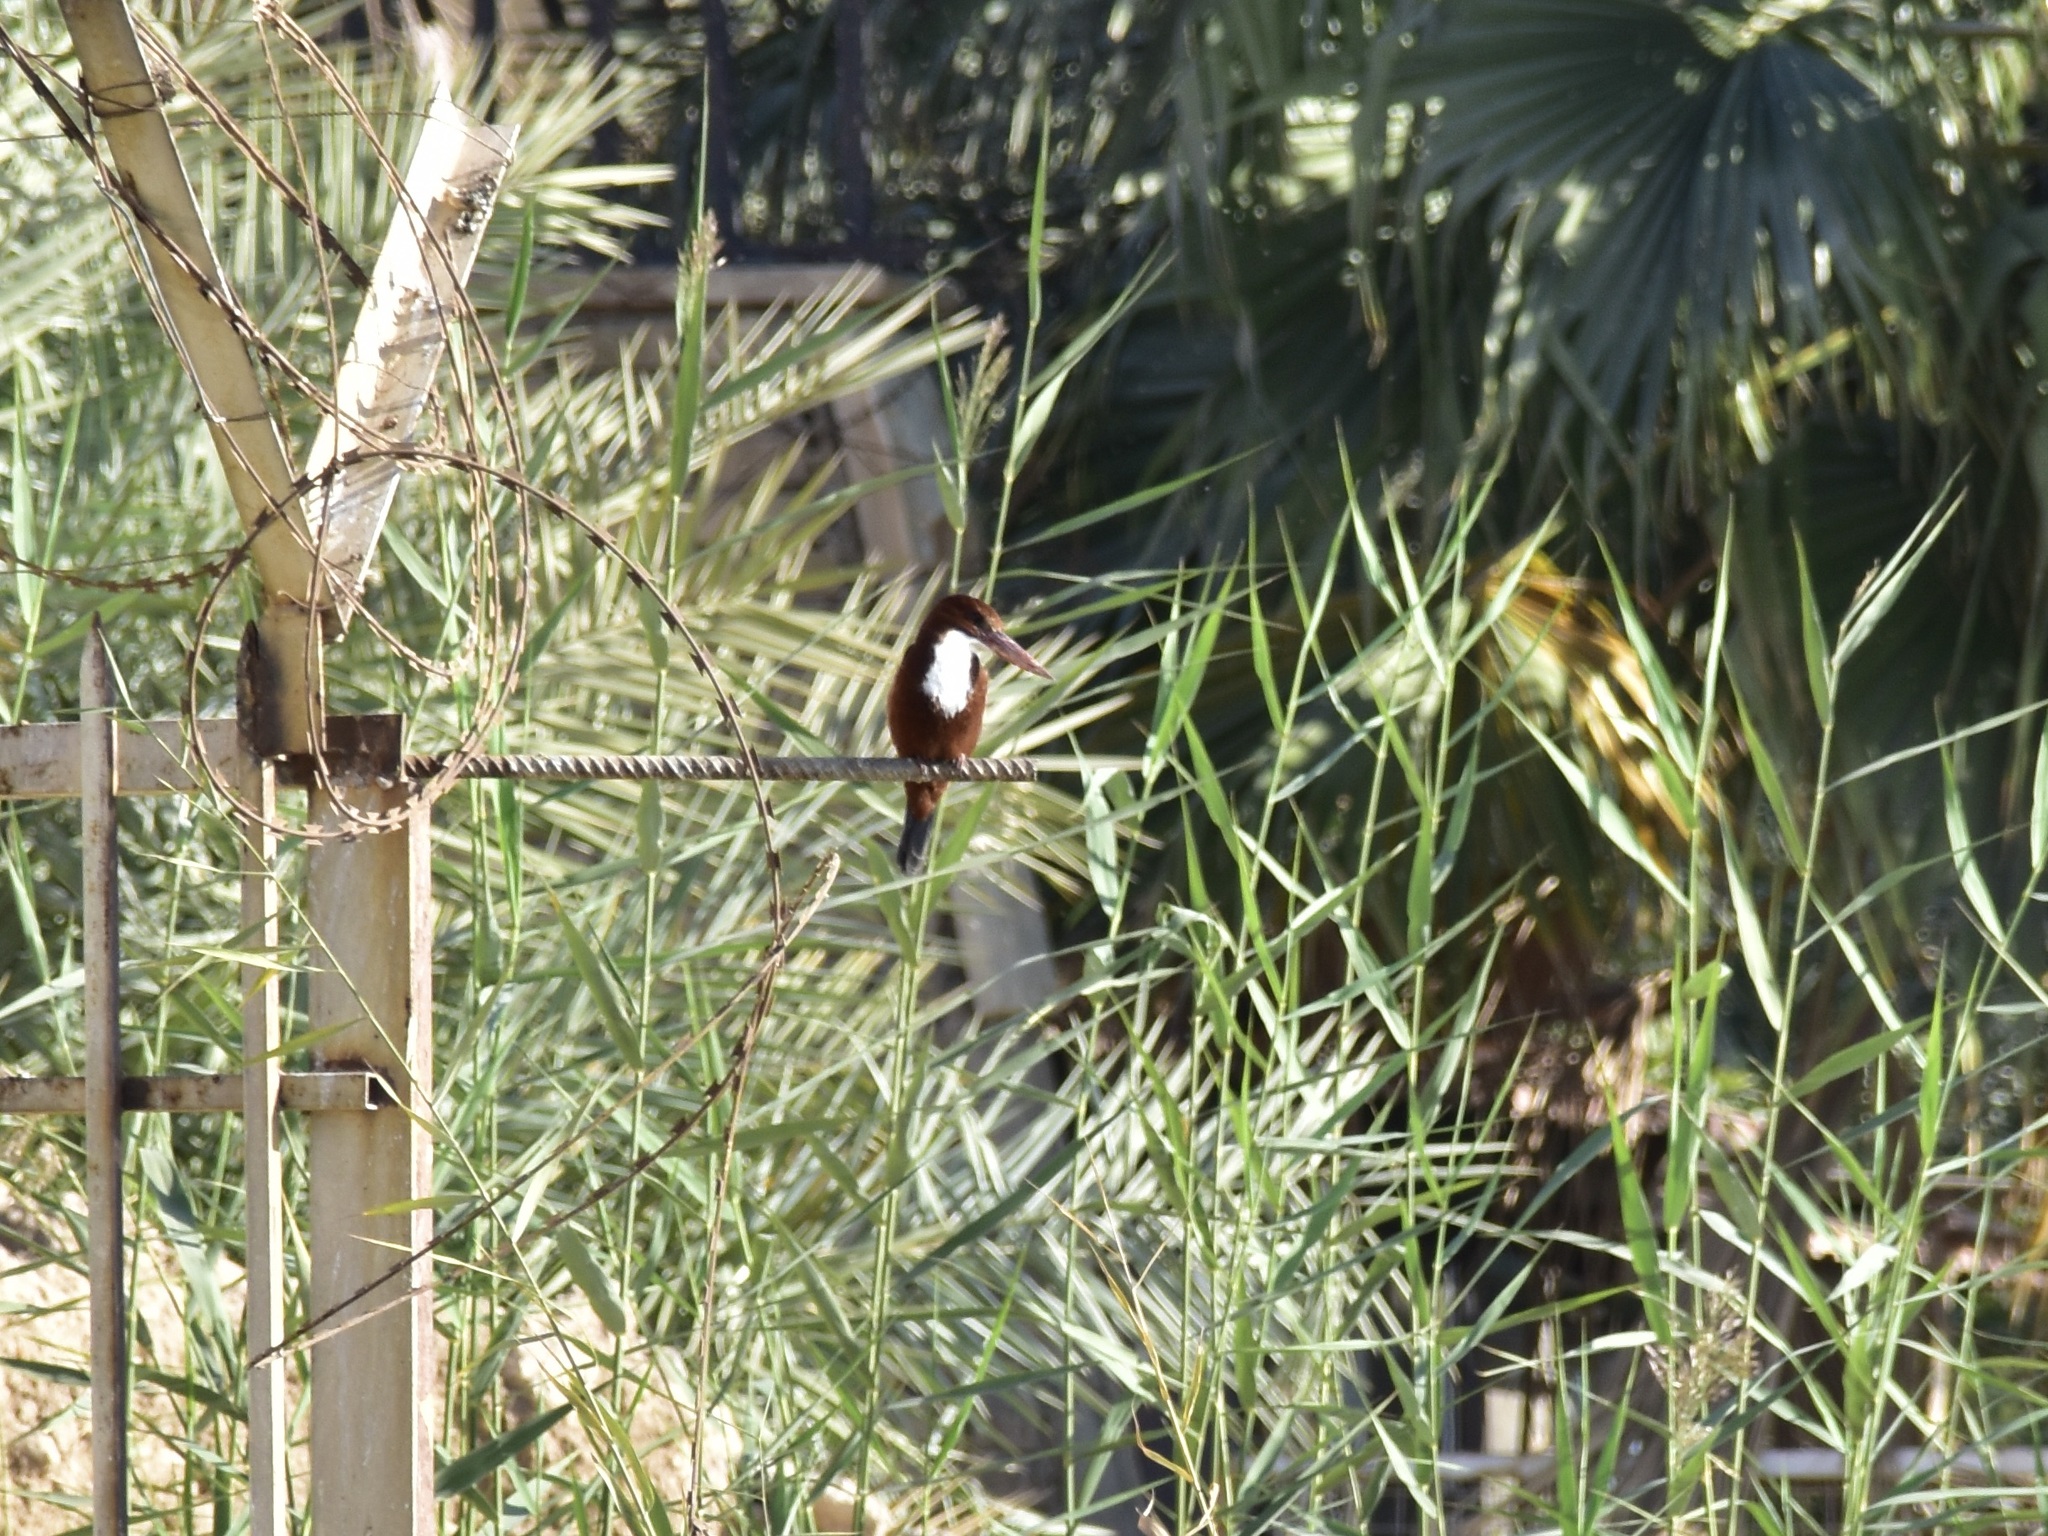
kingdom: Animalia
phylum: Chordata
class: Aves
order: Coraciiformes
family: Alcedinidae
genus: Halcyon
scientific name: Halcyon smyrnensis
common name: White-throated kingfisher
